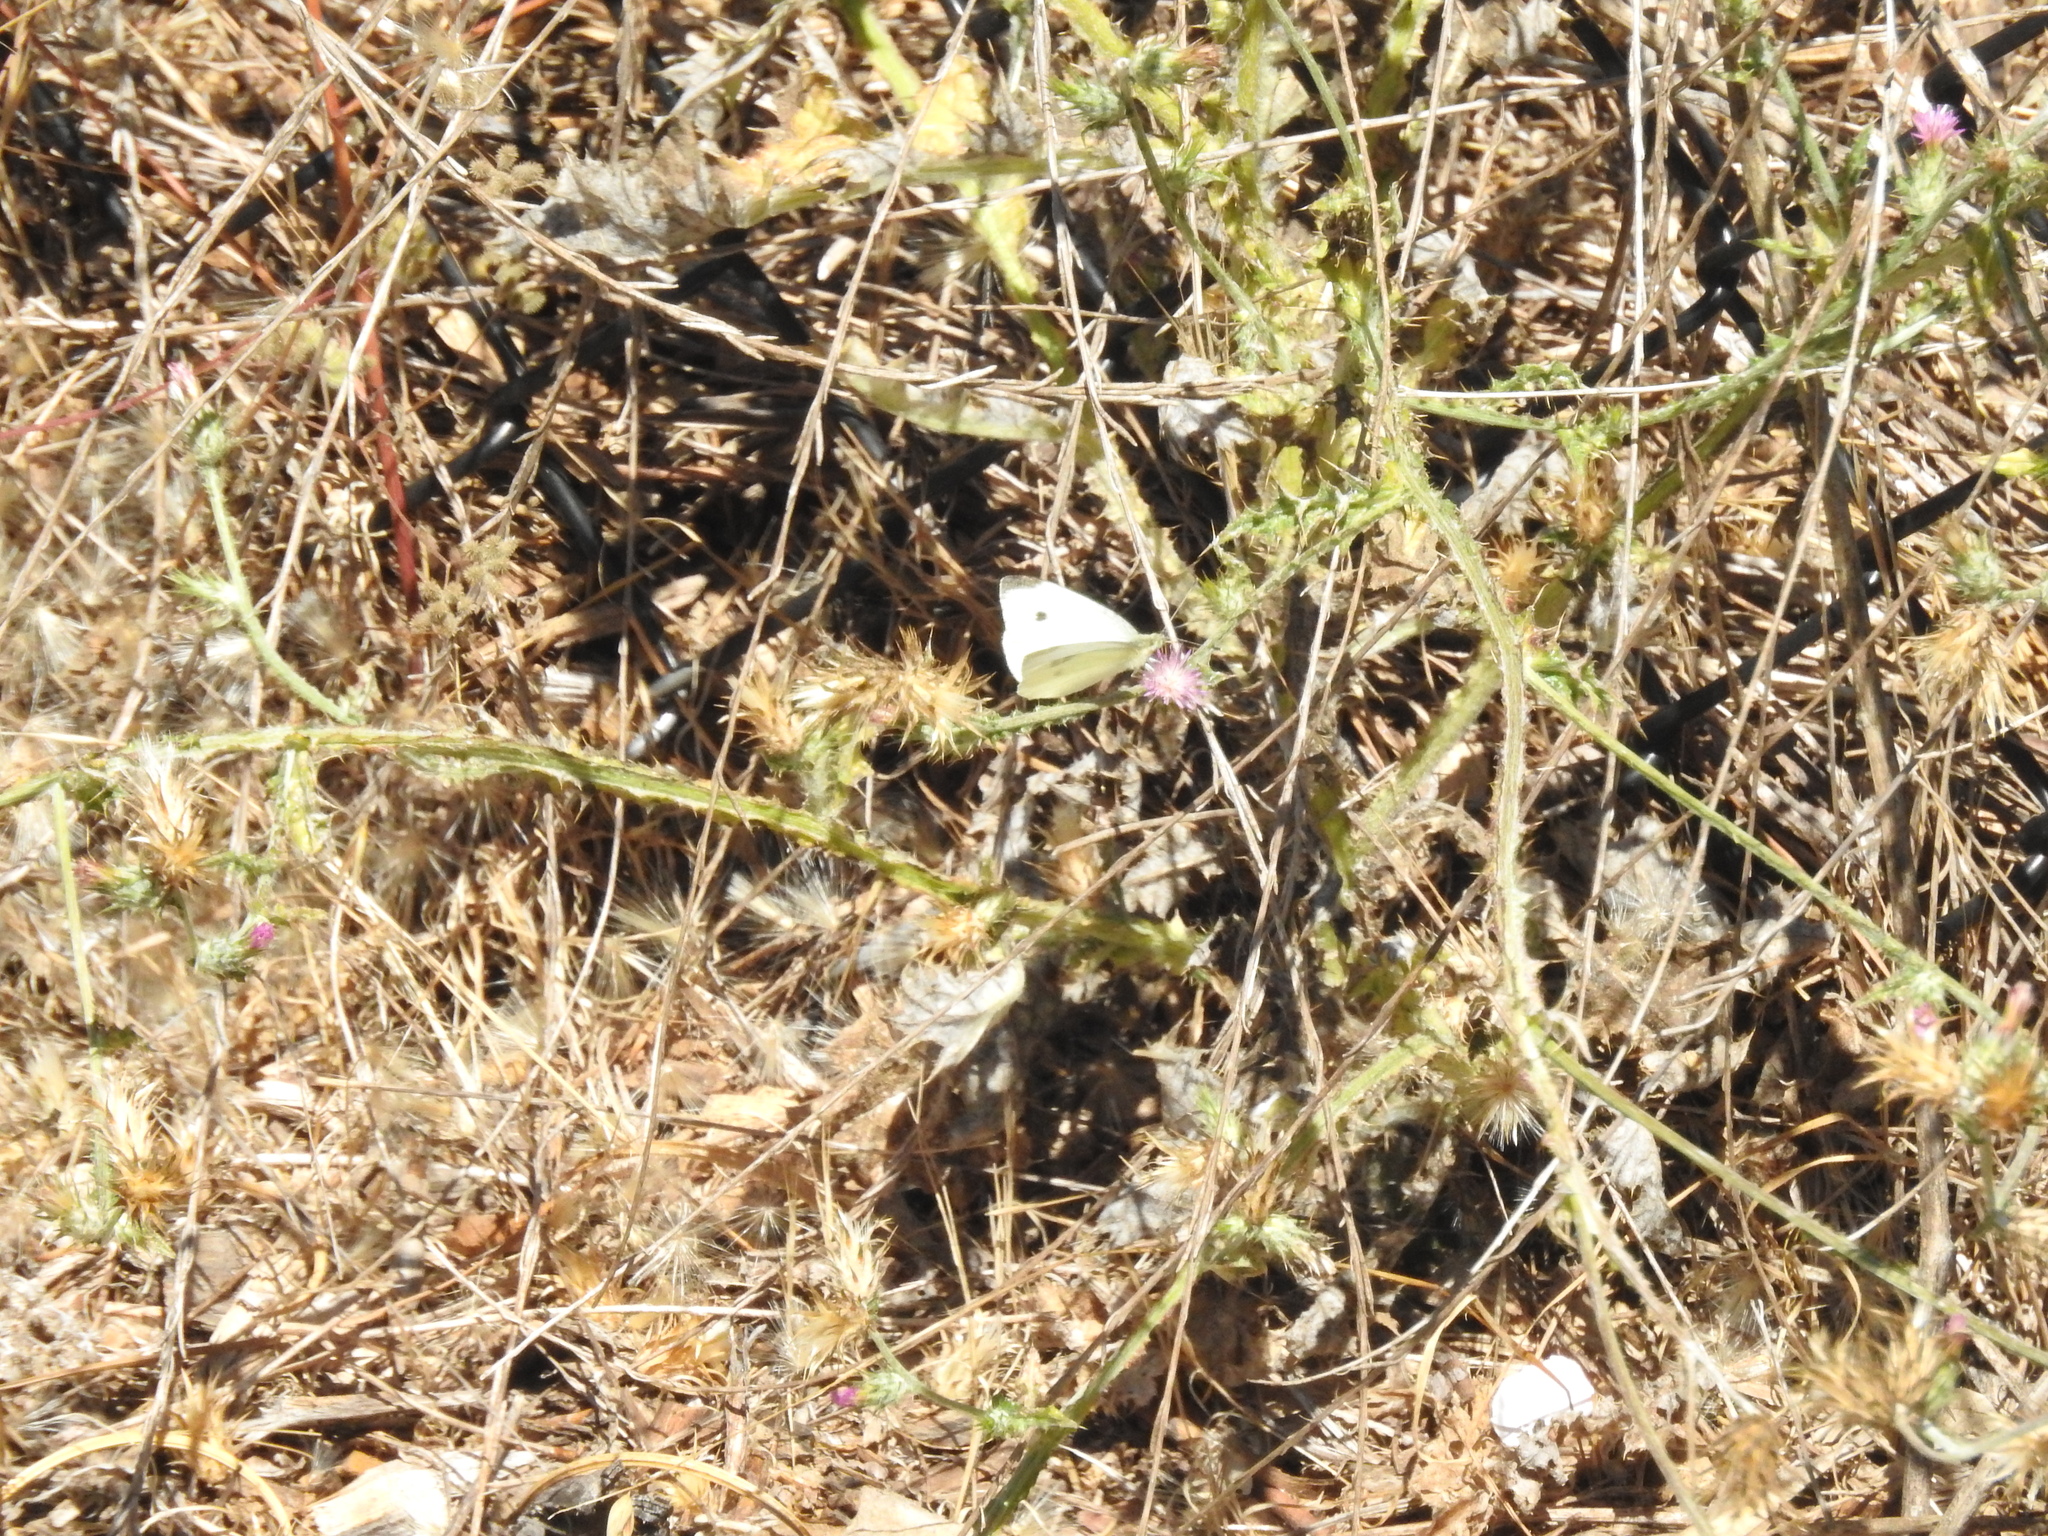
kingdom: Animalia
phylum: Arthropoda
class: Insecta
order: Lepidoptera
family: Pieridae
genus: Pieris
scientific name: Pieris rapae
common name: Small white
